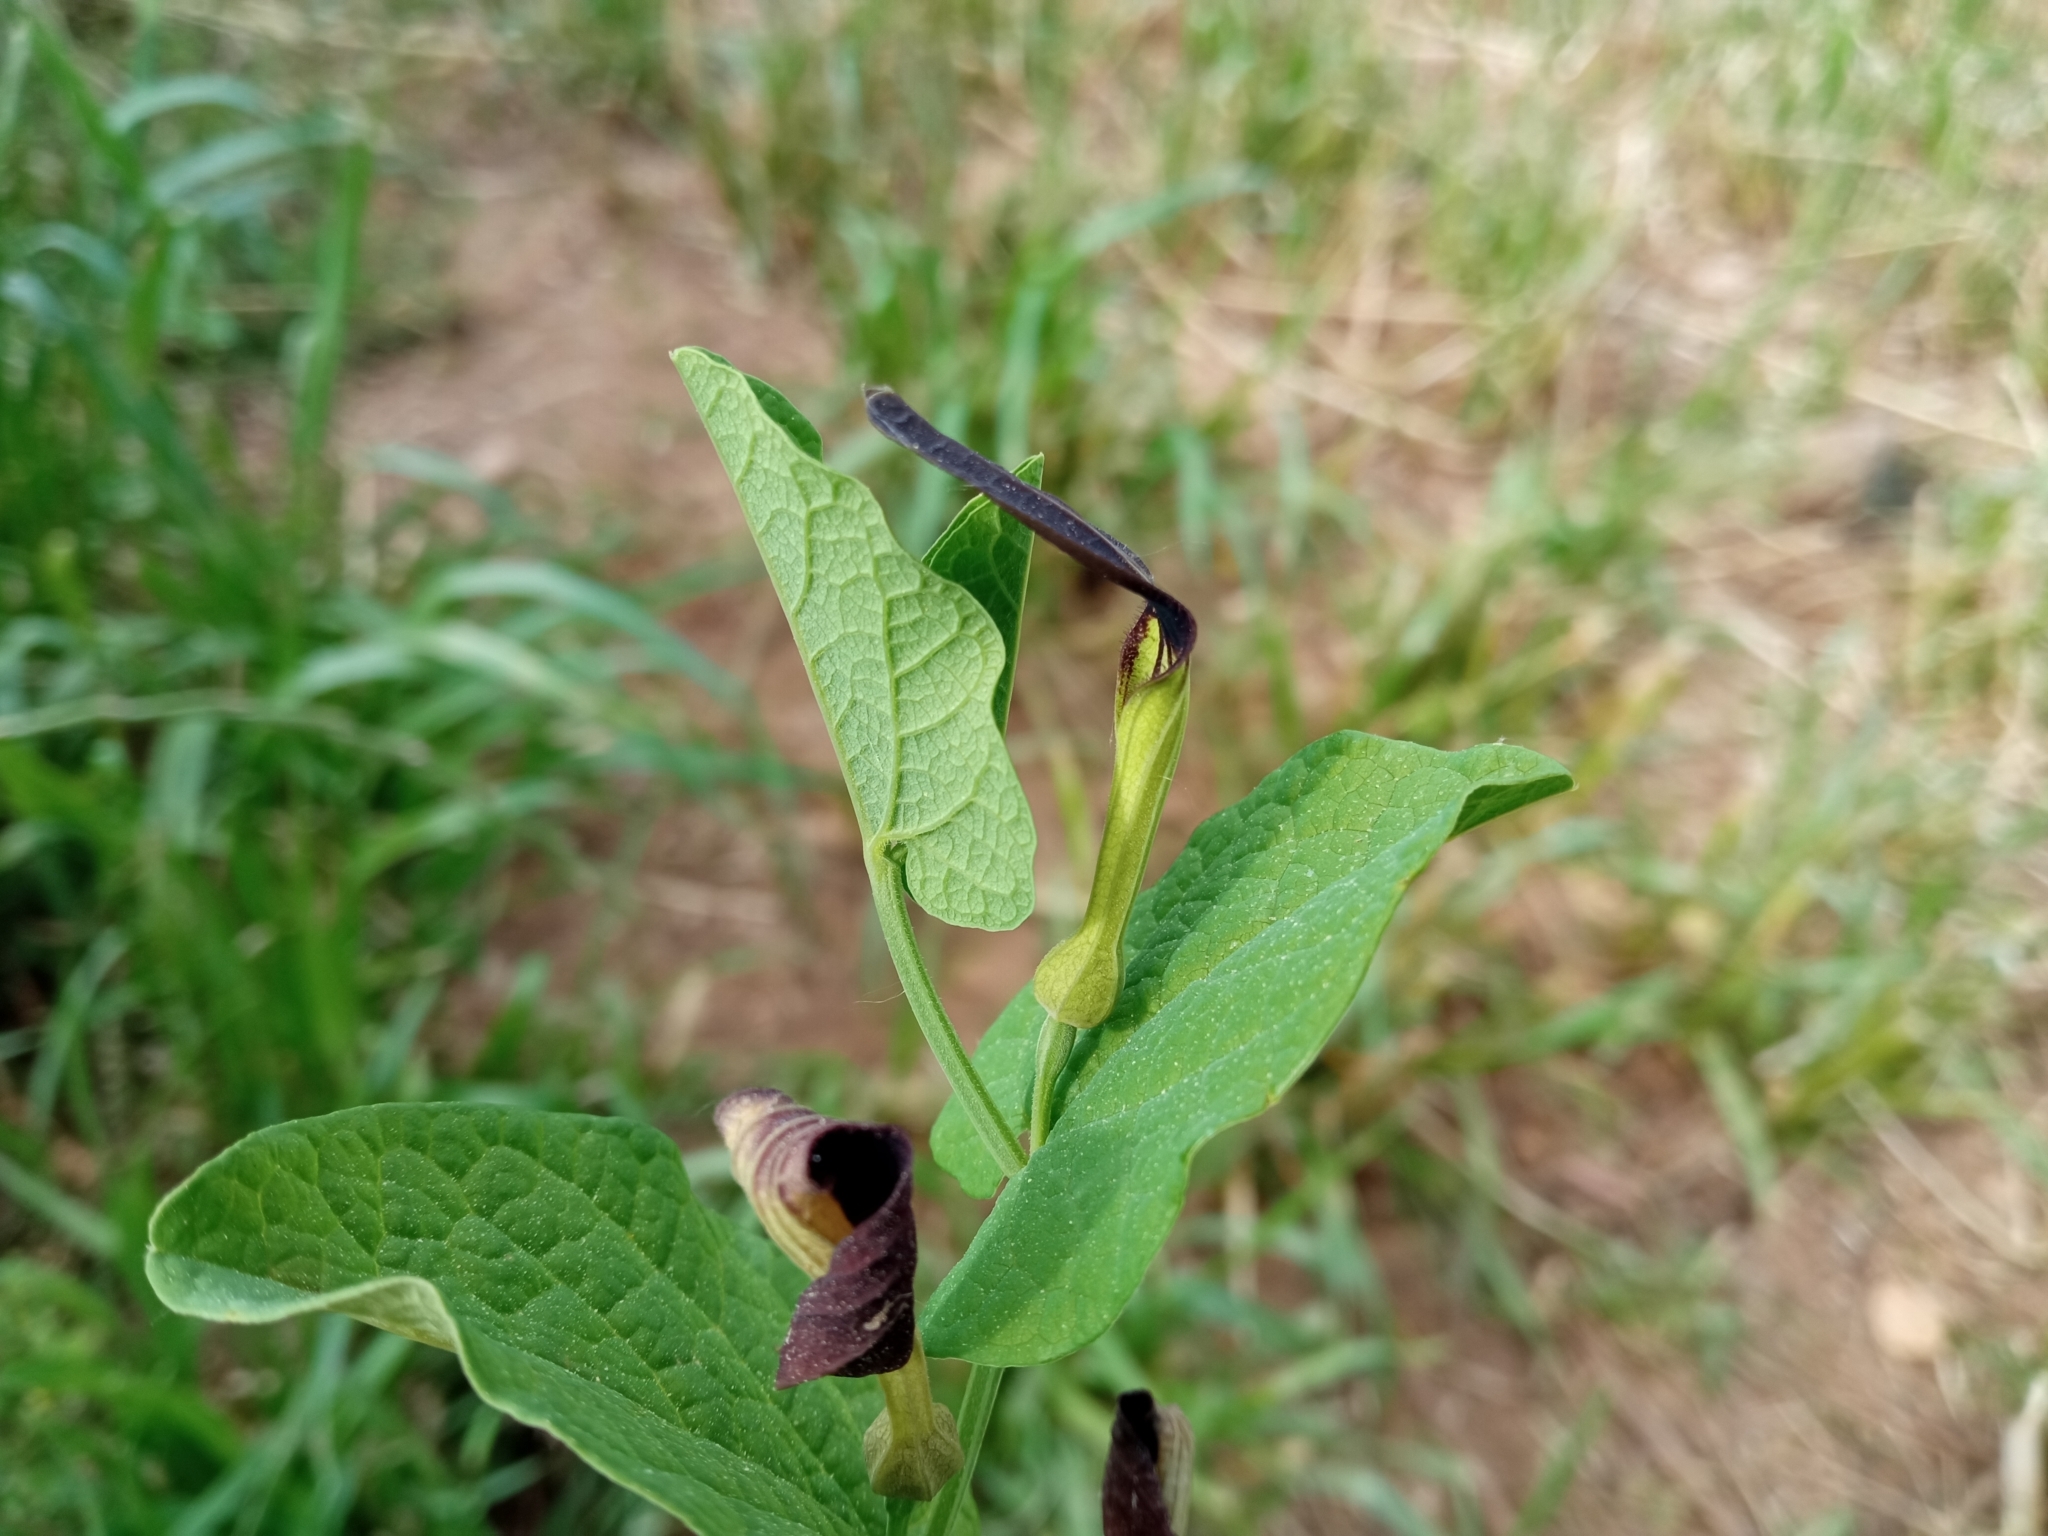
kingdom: Plantae
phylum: Tracheophyta
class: Magnoliopsida
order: Piperales
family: Aristolochiaceae
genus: Aristolochia
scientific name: Aristolochia rotunda
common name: Smearwort
